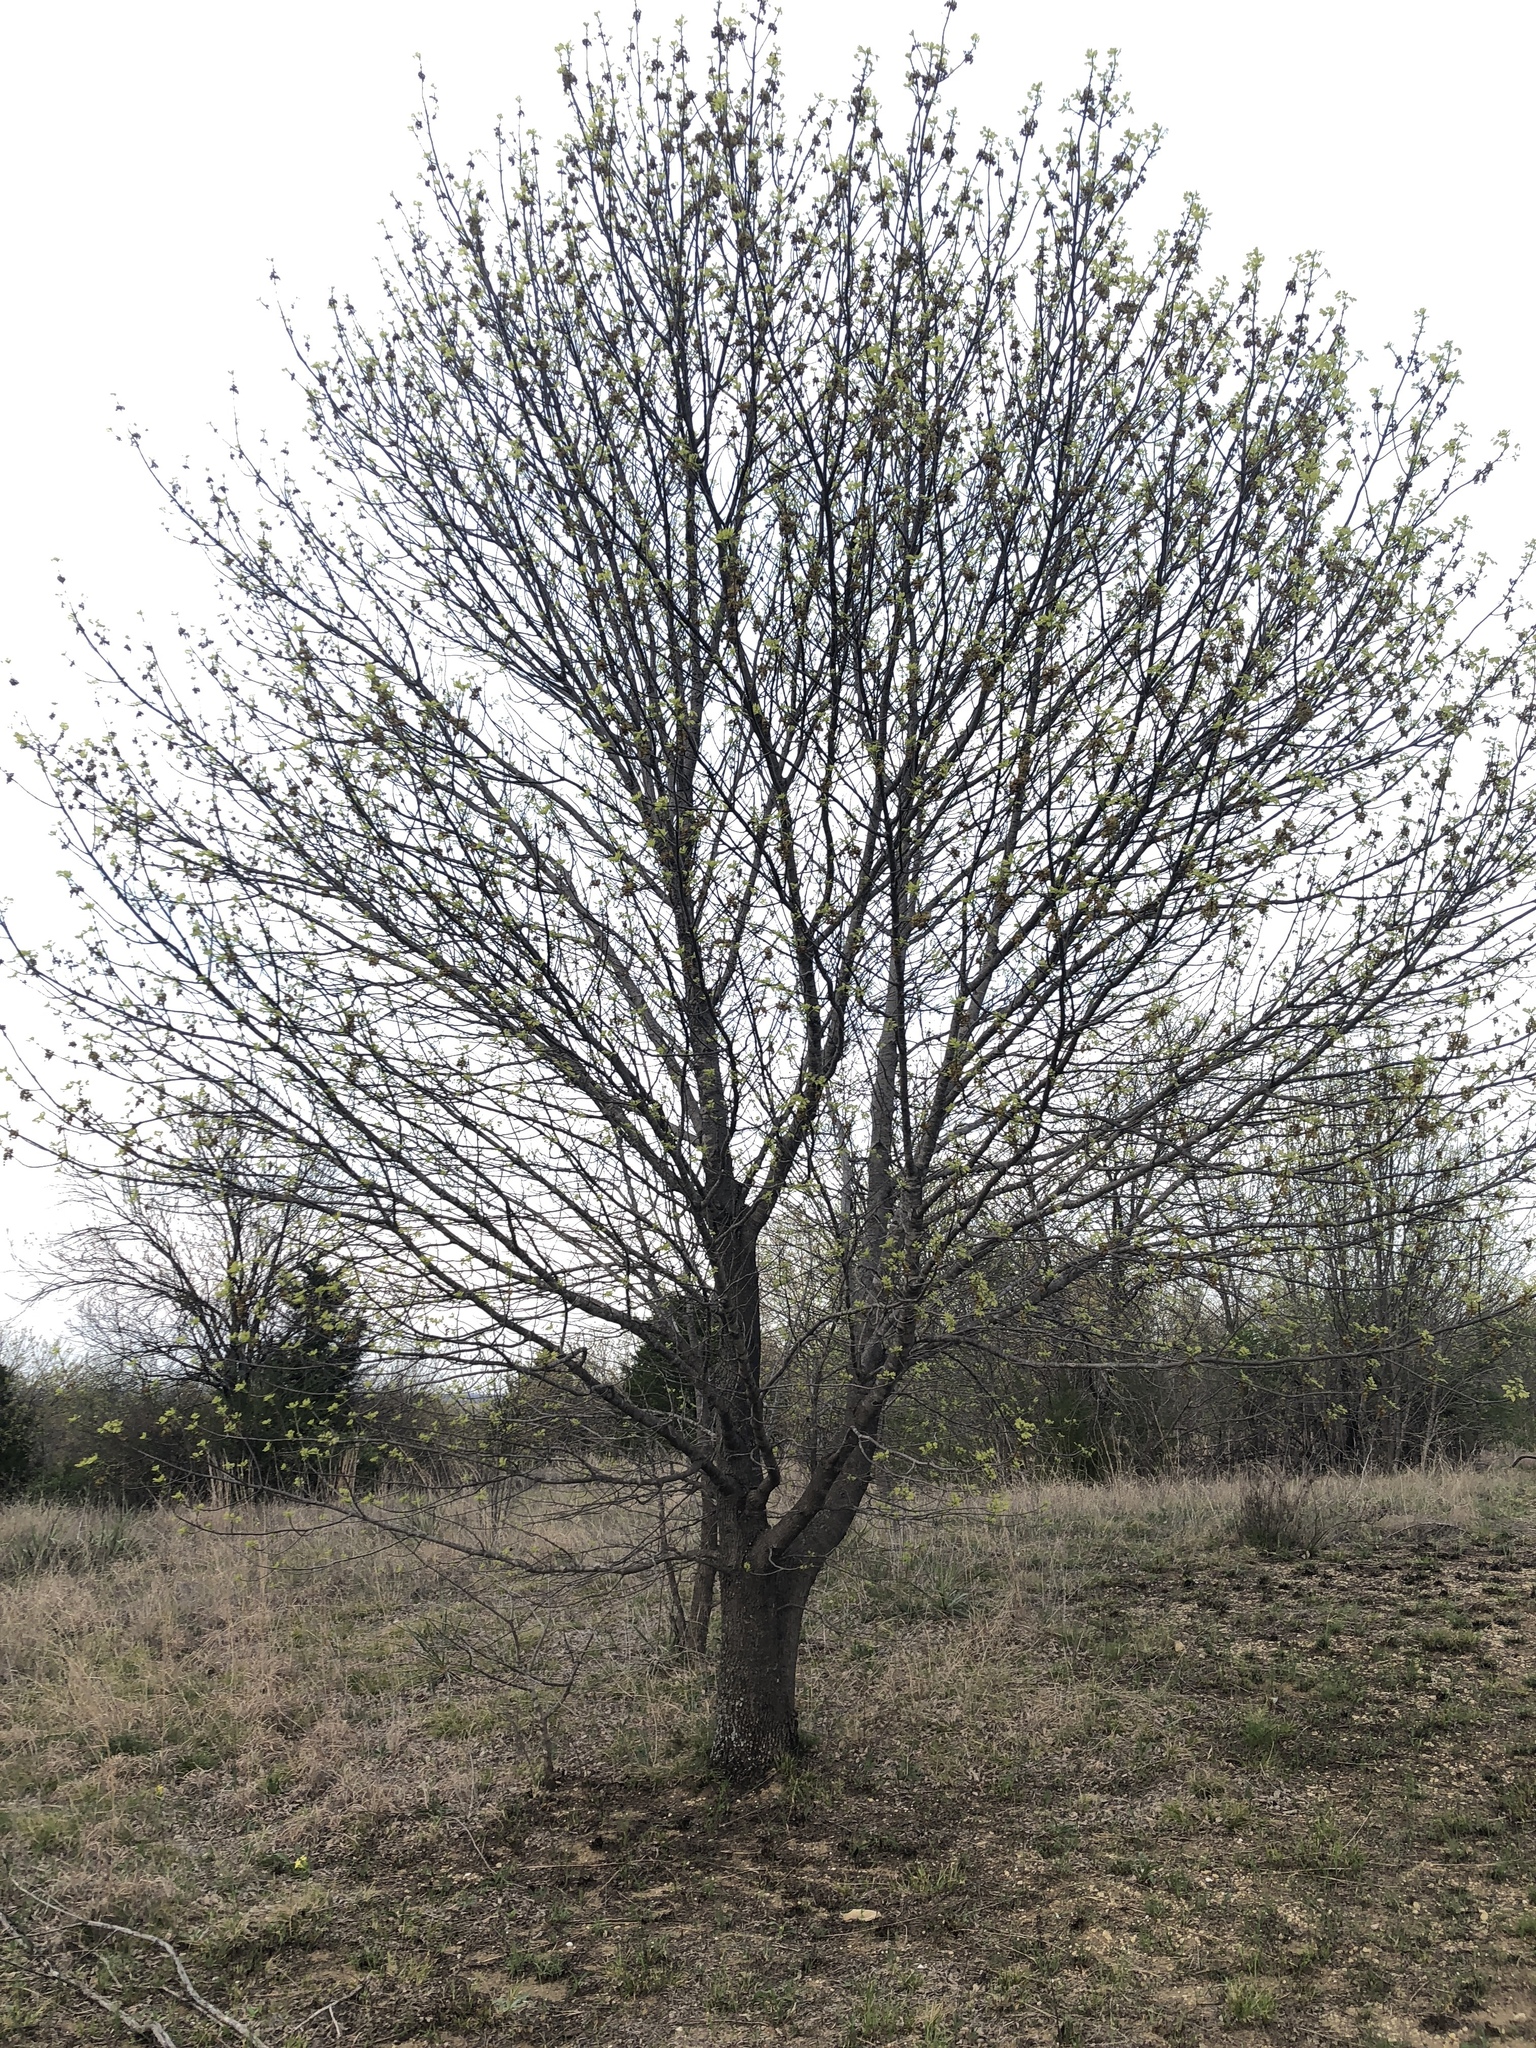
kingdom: Plantae
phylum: Tracheophyta
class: Magnoliopsida
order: Lamiales
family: Oleaceae
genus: Fraxinus
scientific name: Fraxinus albicans
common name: Texas ash
